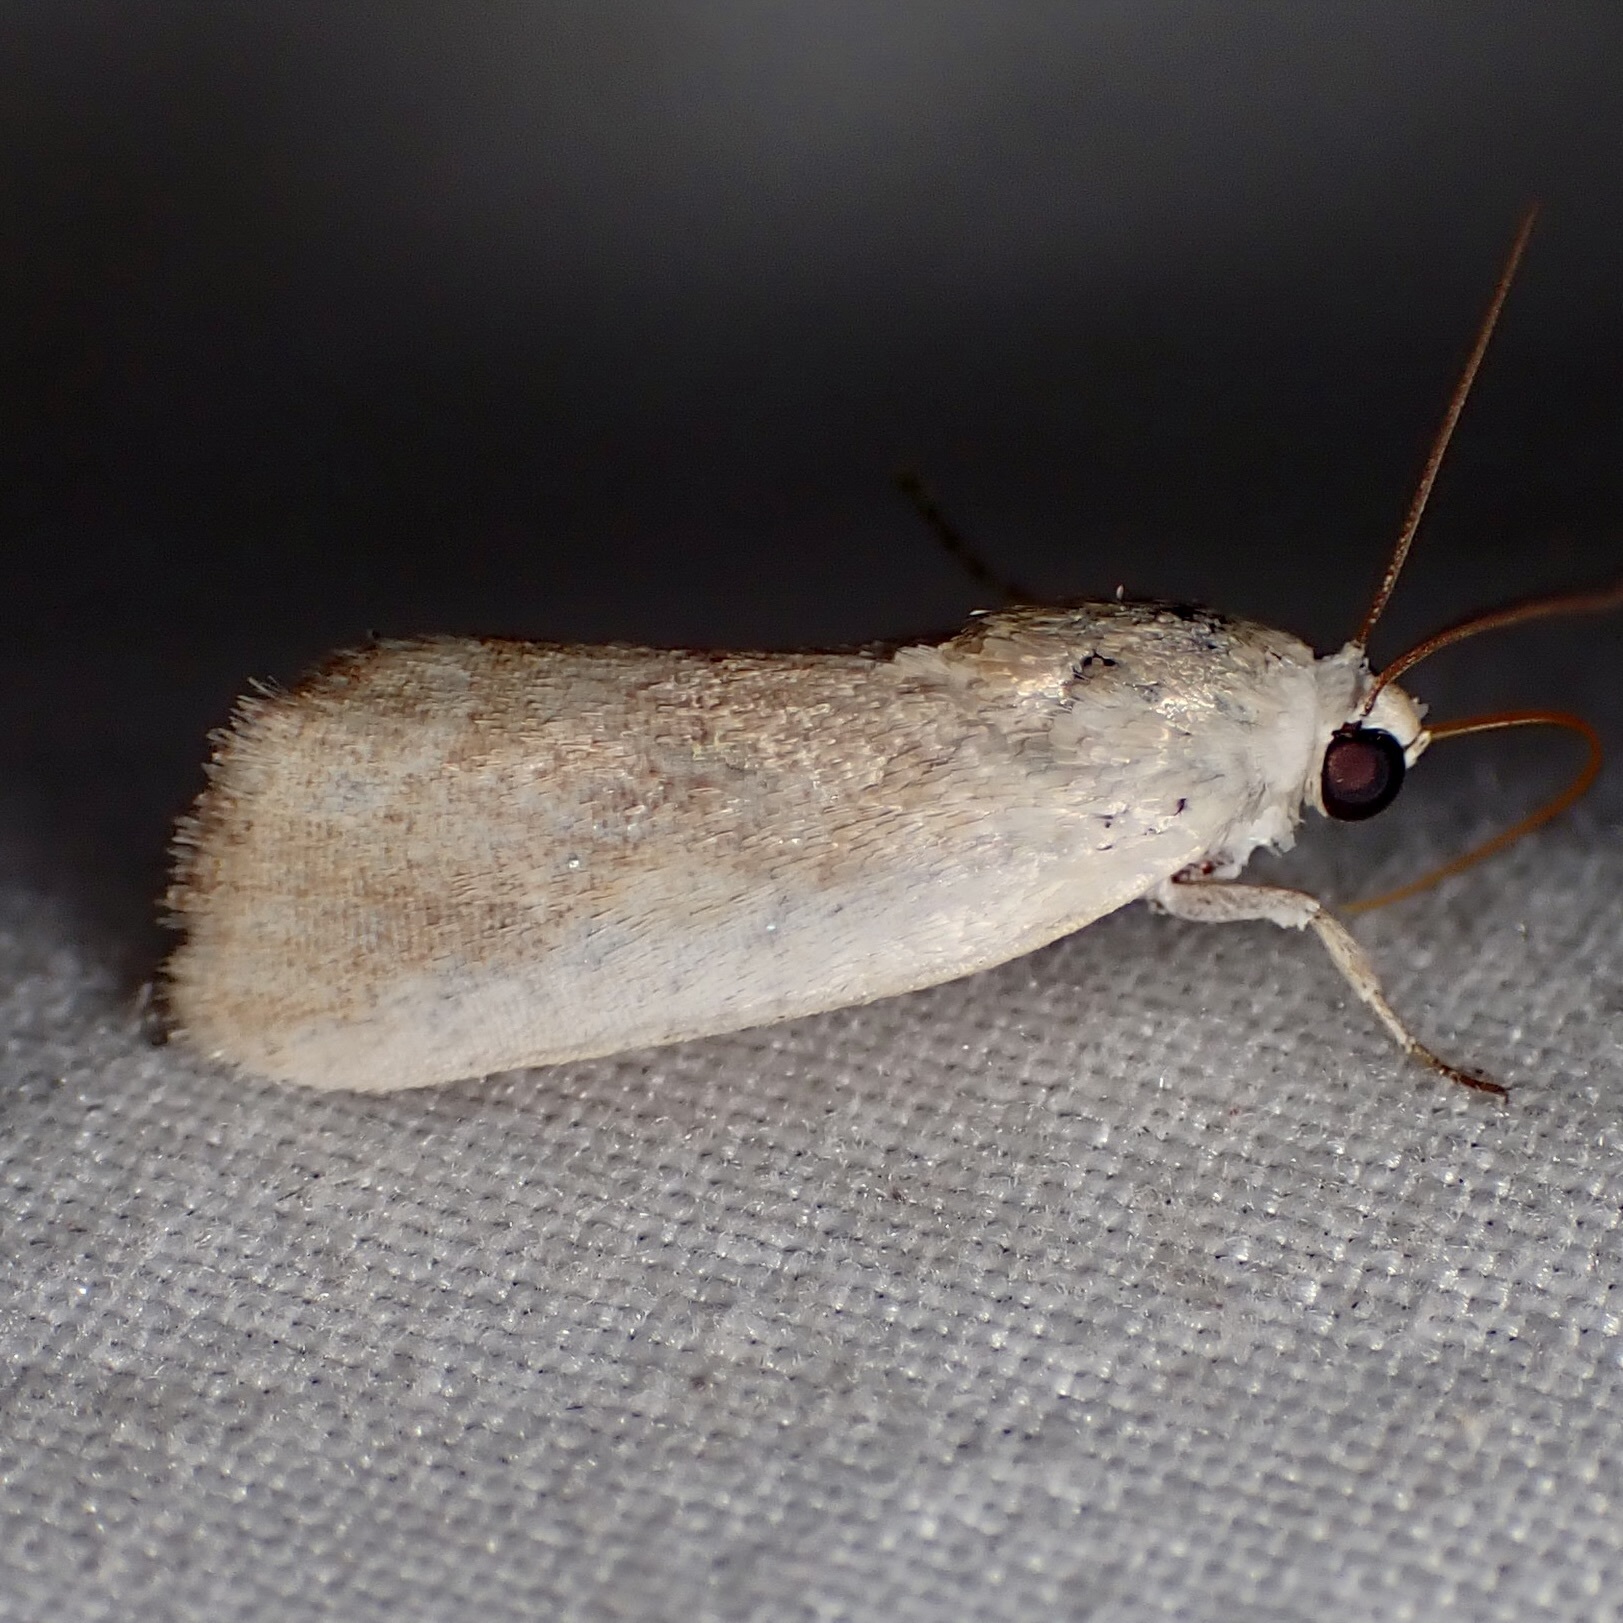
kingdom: Animalia
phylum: Arthropoda
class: Insecta
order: Lepidoptera
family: Noctuidae
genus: Acontia
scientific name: Acontia fasciatella
